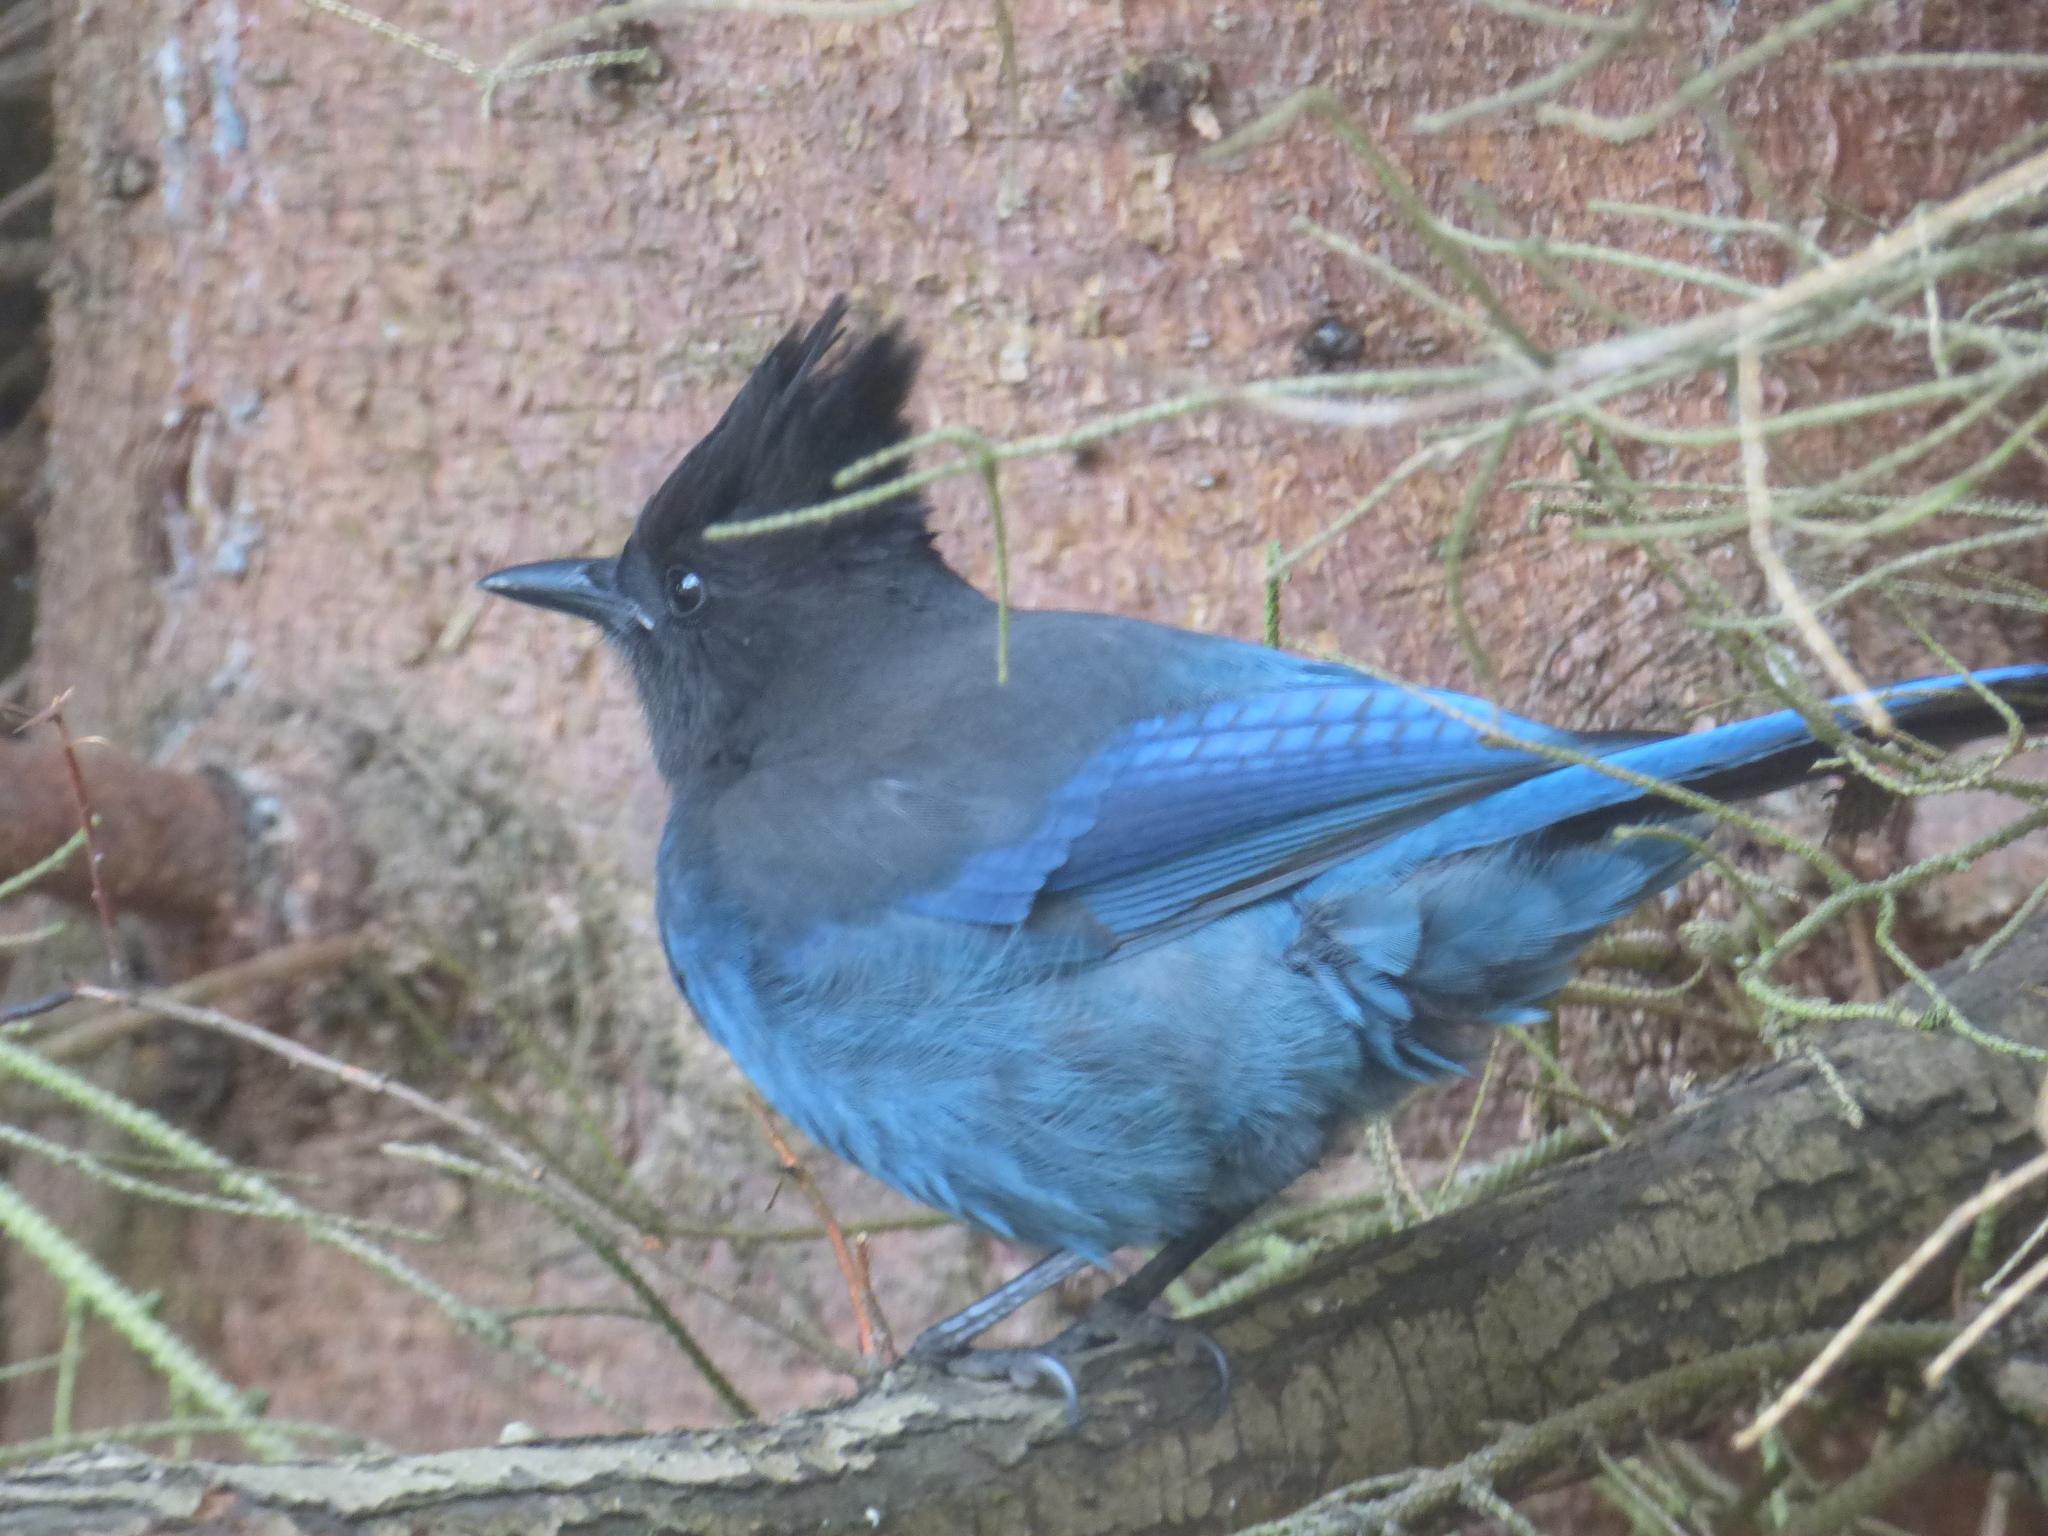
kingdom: Animalia
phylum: Chordata
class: Aves
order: Passeriformes
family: Corvidae
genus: Cyanocitta
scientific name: Cyanocitta stelleri
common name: Steller's jay
